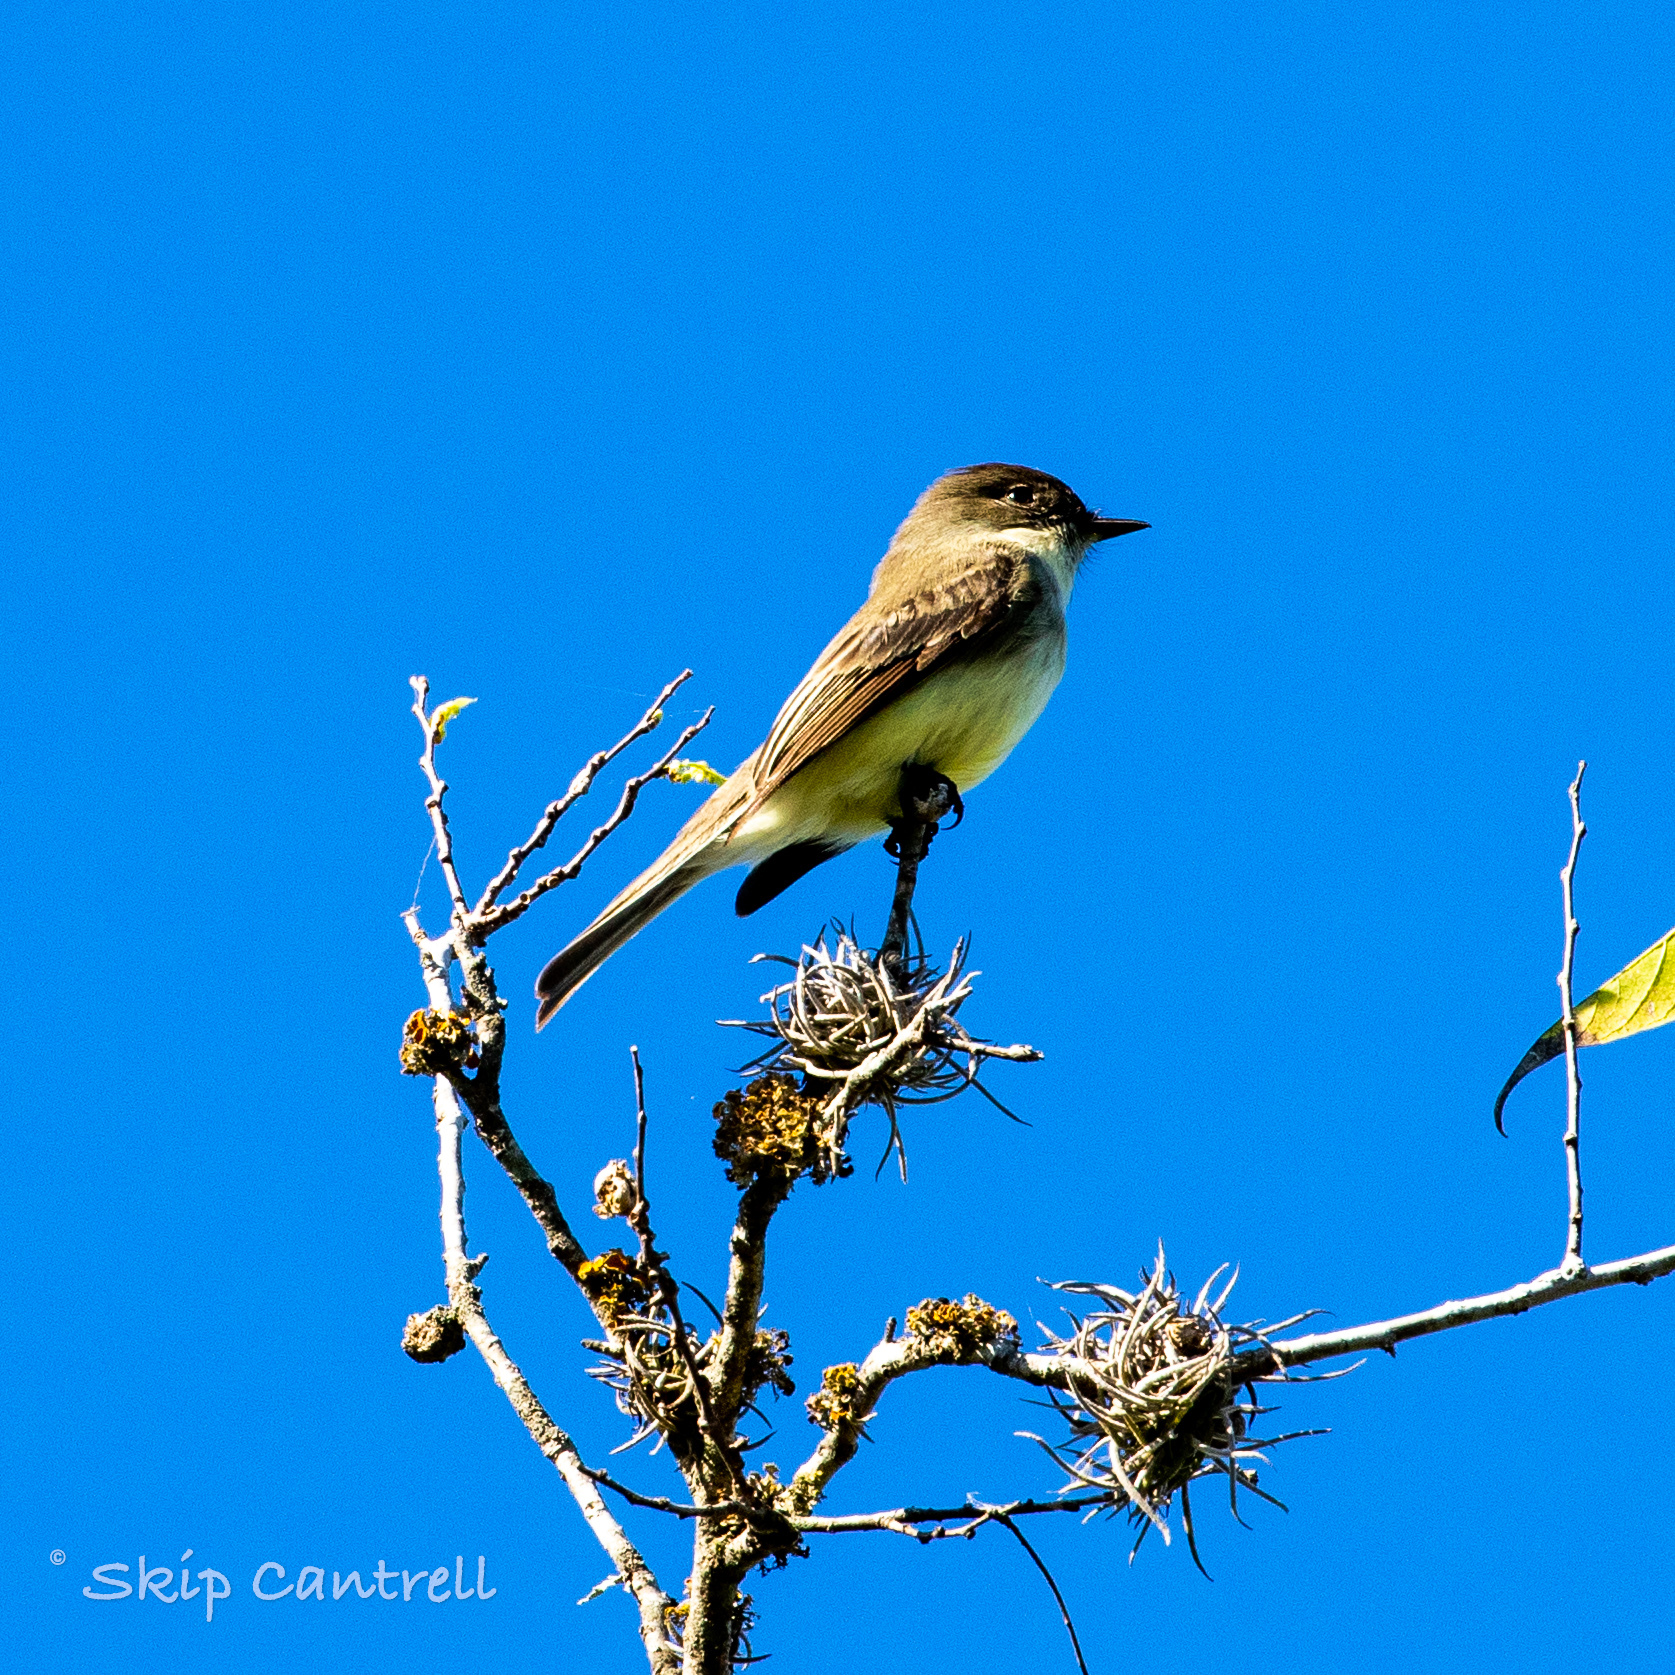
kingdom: Animalia
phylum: Chordata
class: Aves
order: Passeriformes
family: Tyrannidae
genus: Sayornis
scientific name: Sayornis phoebe
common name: Eastern phoebe
